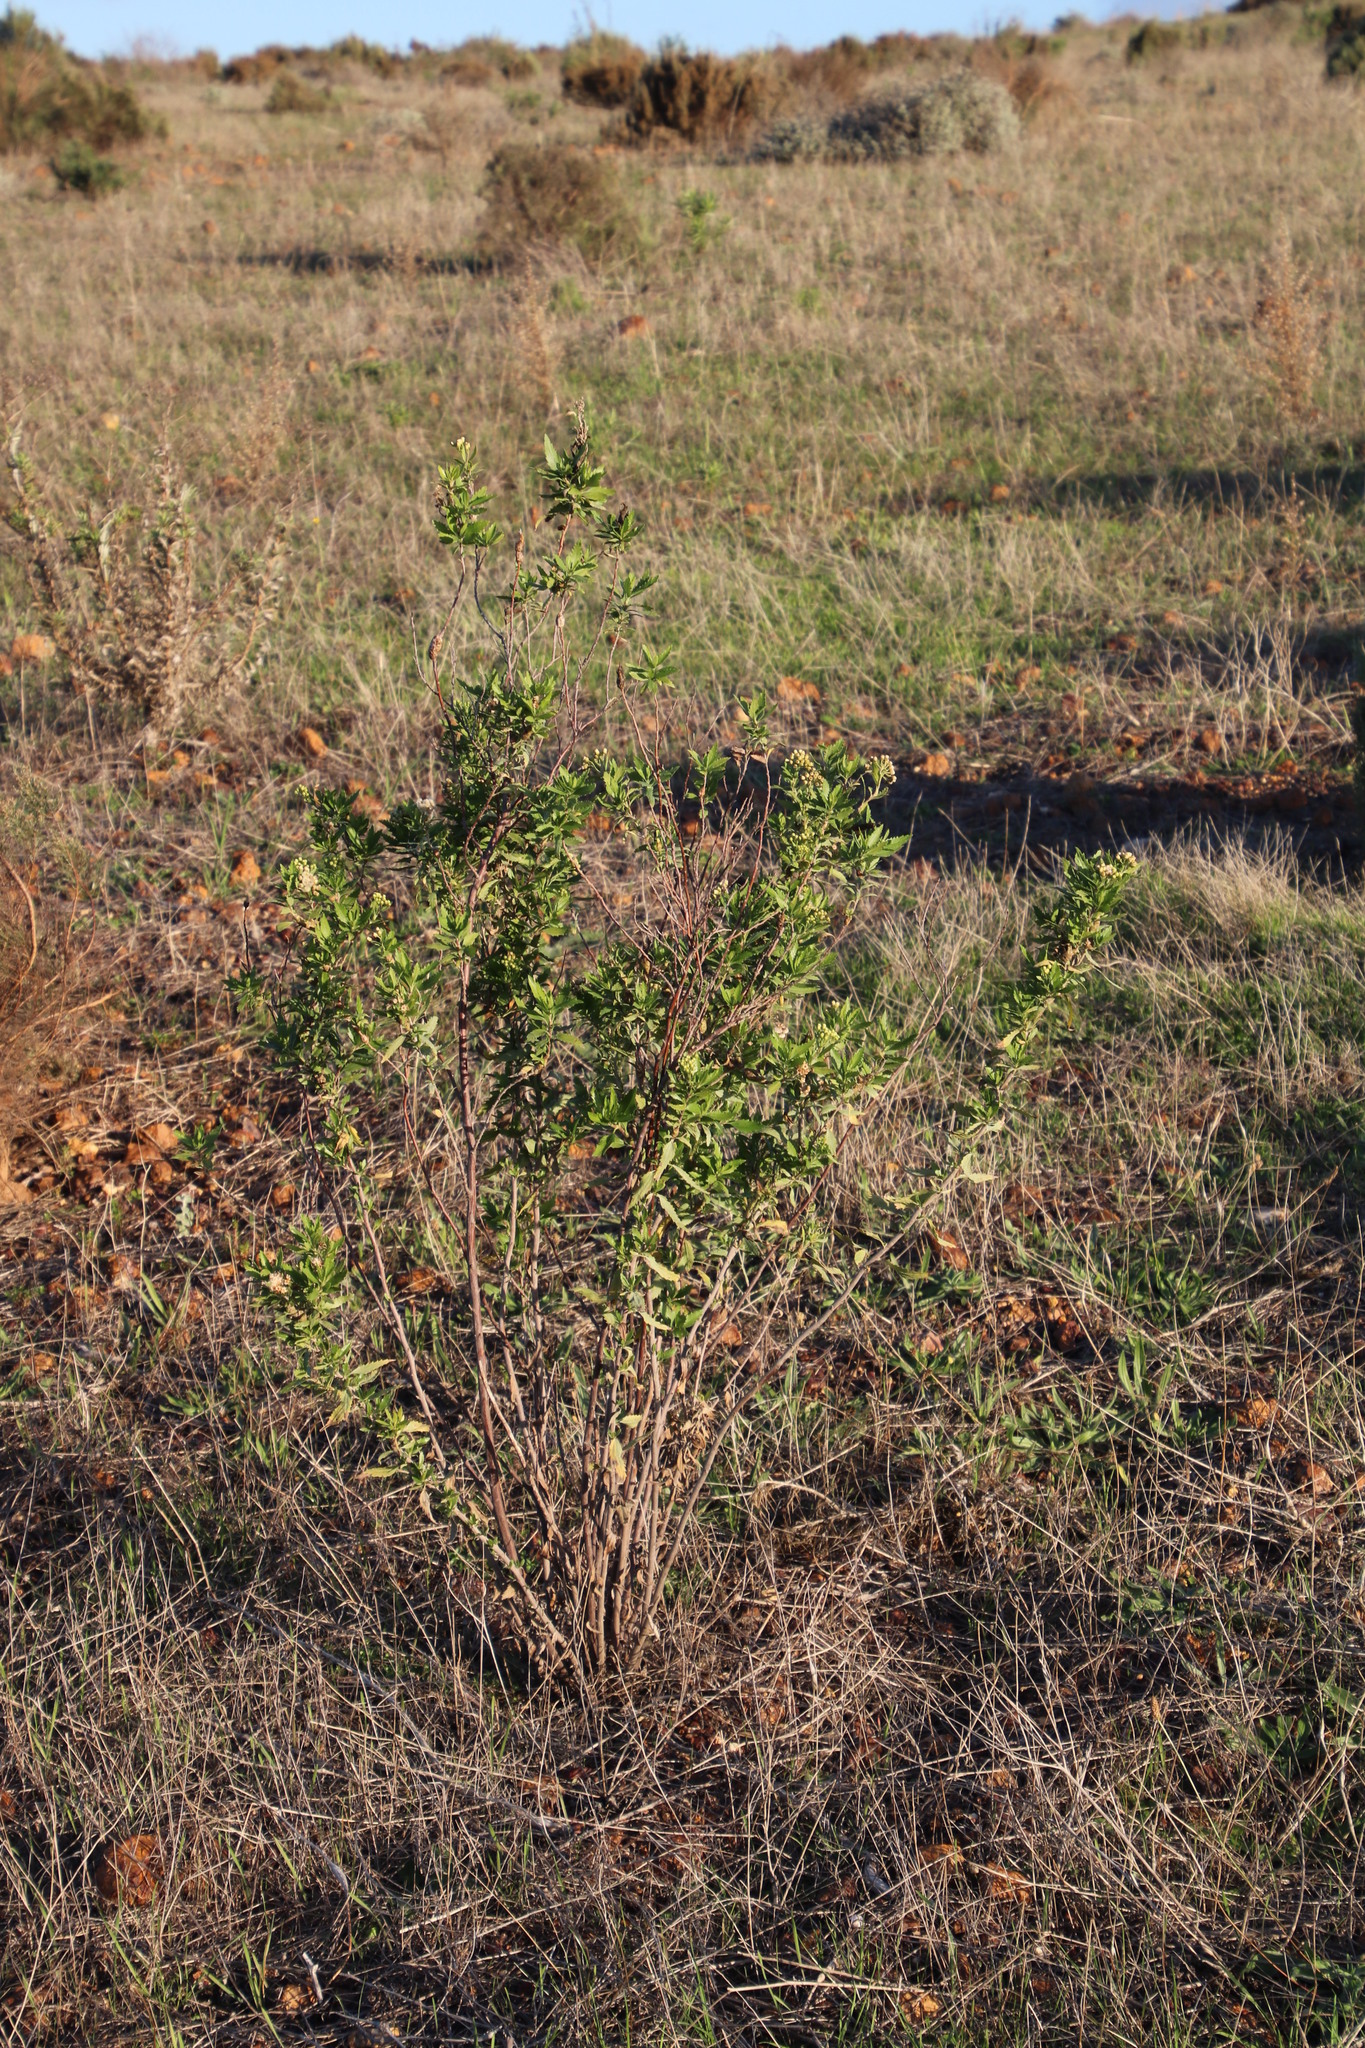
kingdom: Plantae
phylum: Tracheophyta
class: Magnoliopsida
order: Asterales
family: Asteraceae
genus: Nidorella
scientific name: Nidorella ivifolia
